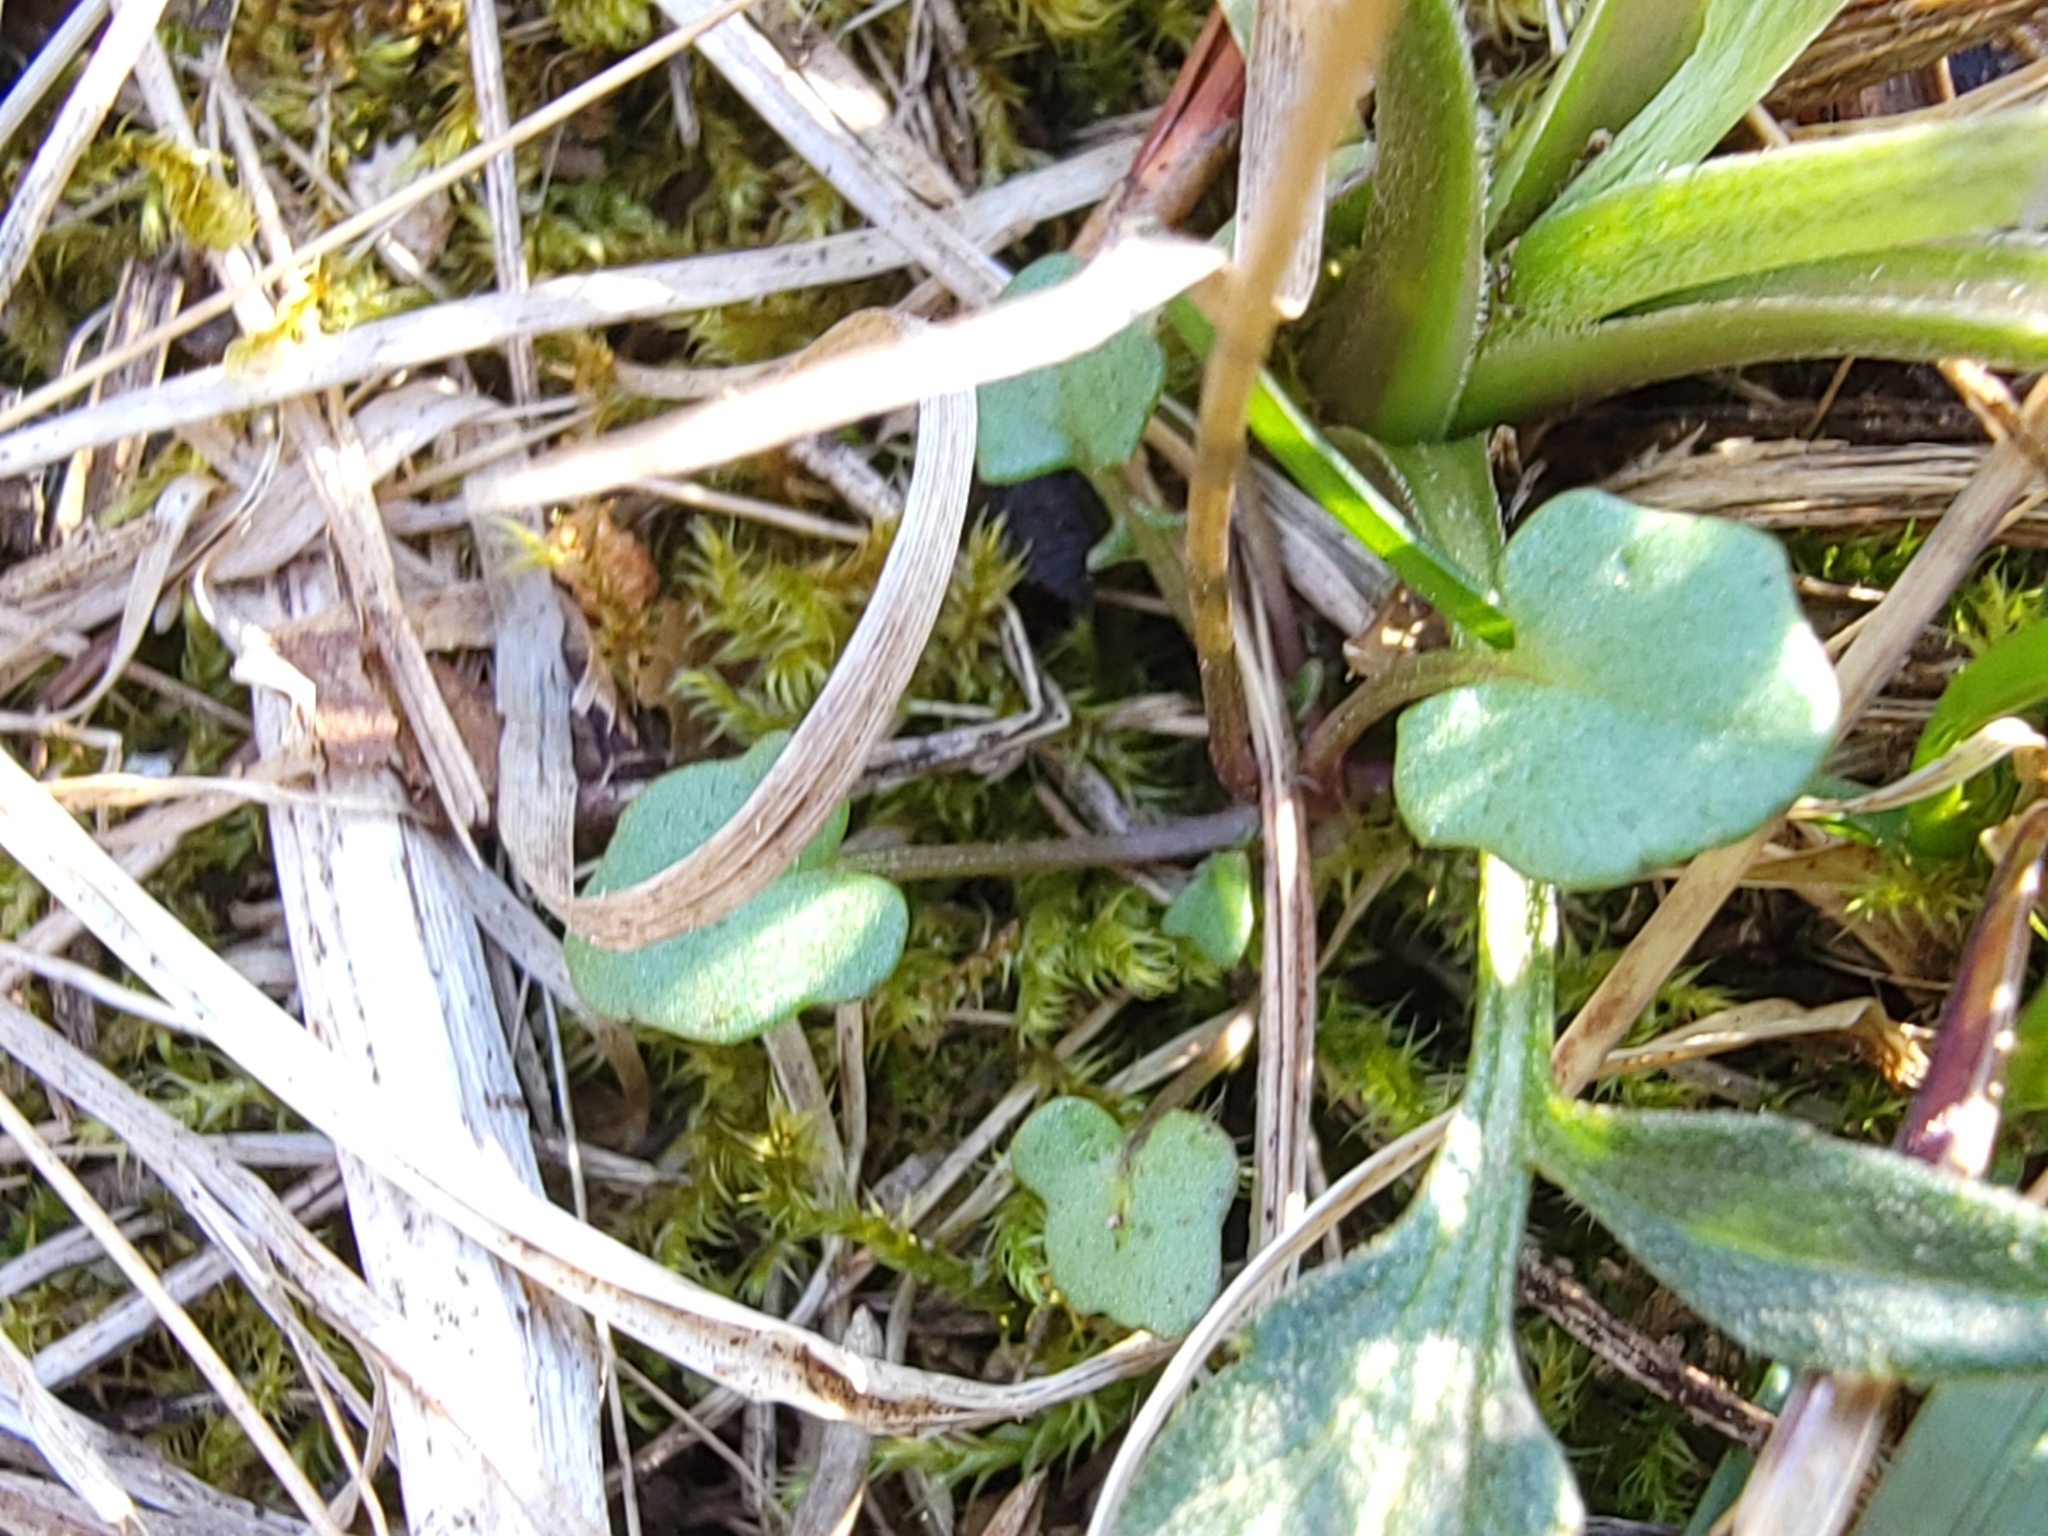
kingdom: Plantae
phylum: Tracheophyta
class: Magnoliopsida
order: Brassicales
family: Brassicaceae
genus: Leavenworthia
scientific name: Leavenworthia uniflora
